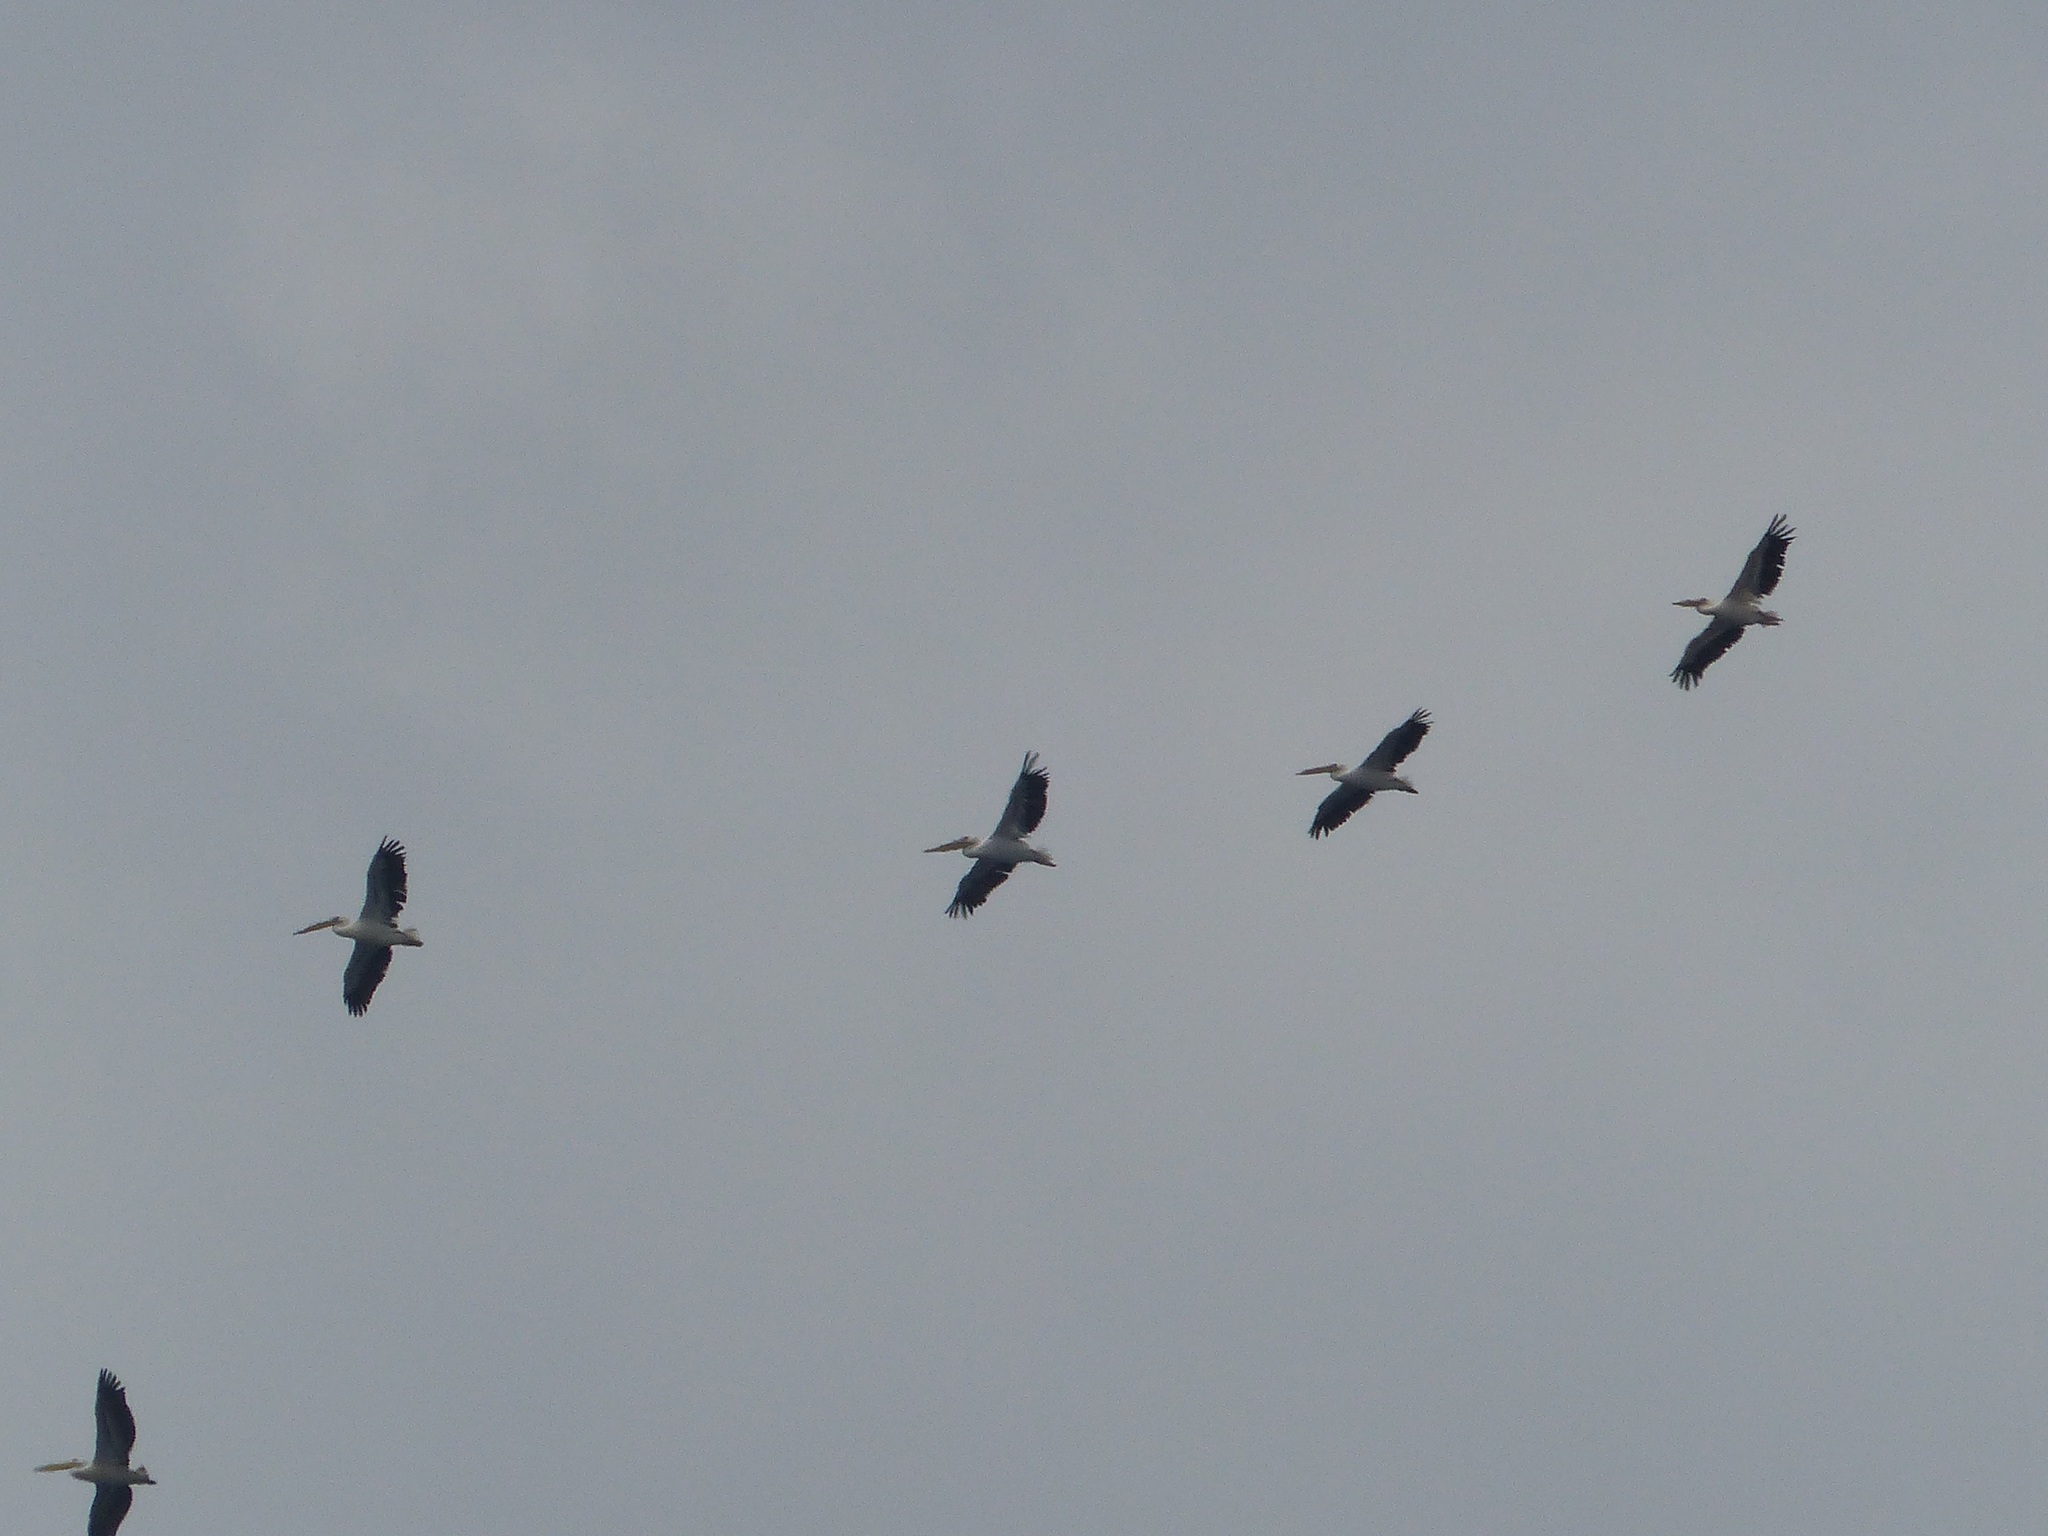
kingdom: Animalia
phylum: Chordata
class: Aves
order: Pelecaniformes
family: Pelecanidae
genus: Pelecanus
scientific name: Pelecanus onocrotalus
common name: Great white pelican
